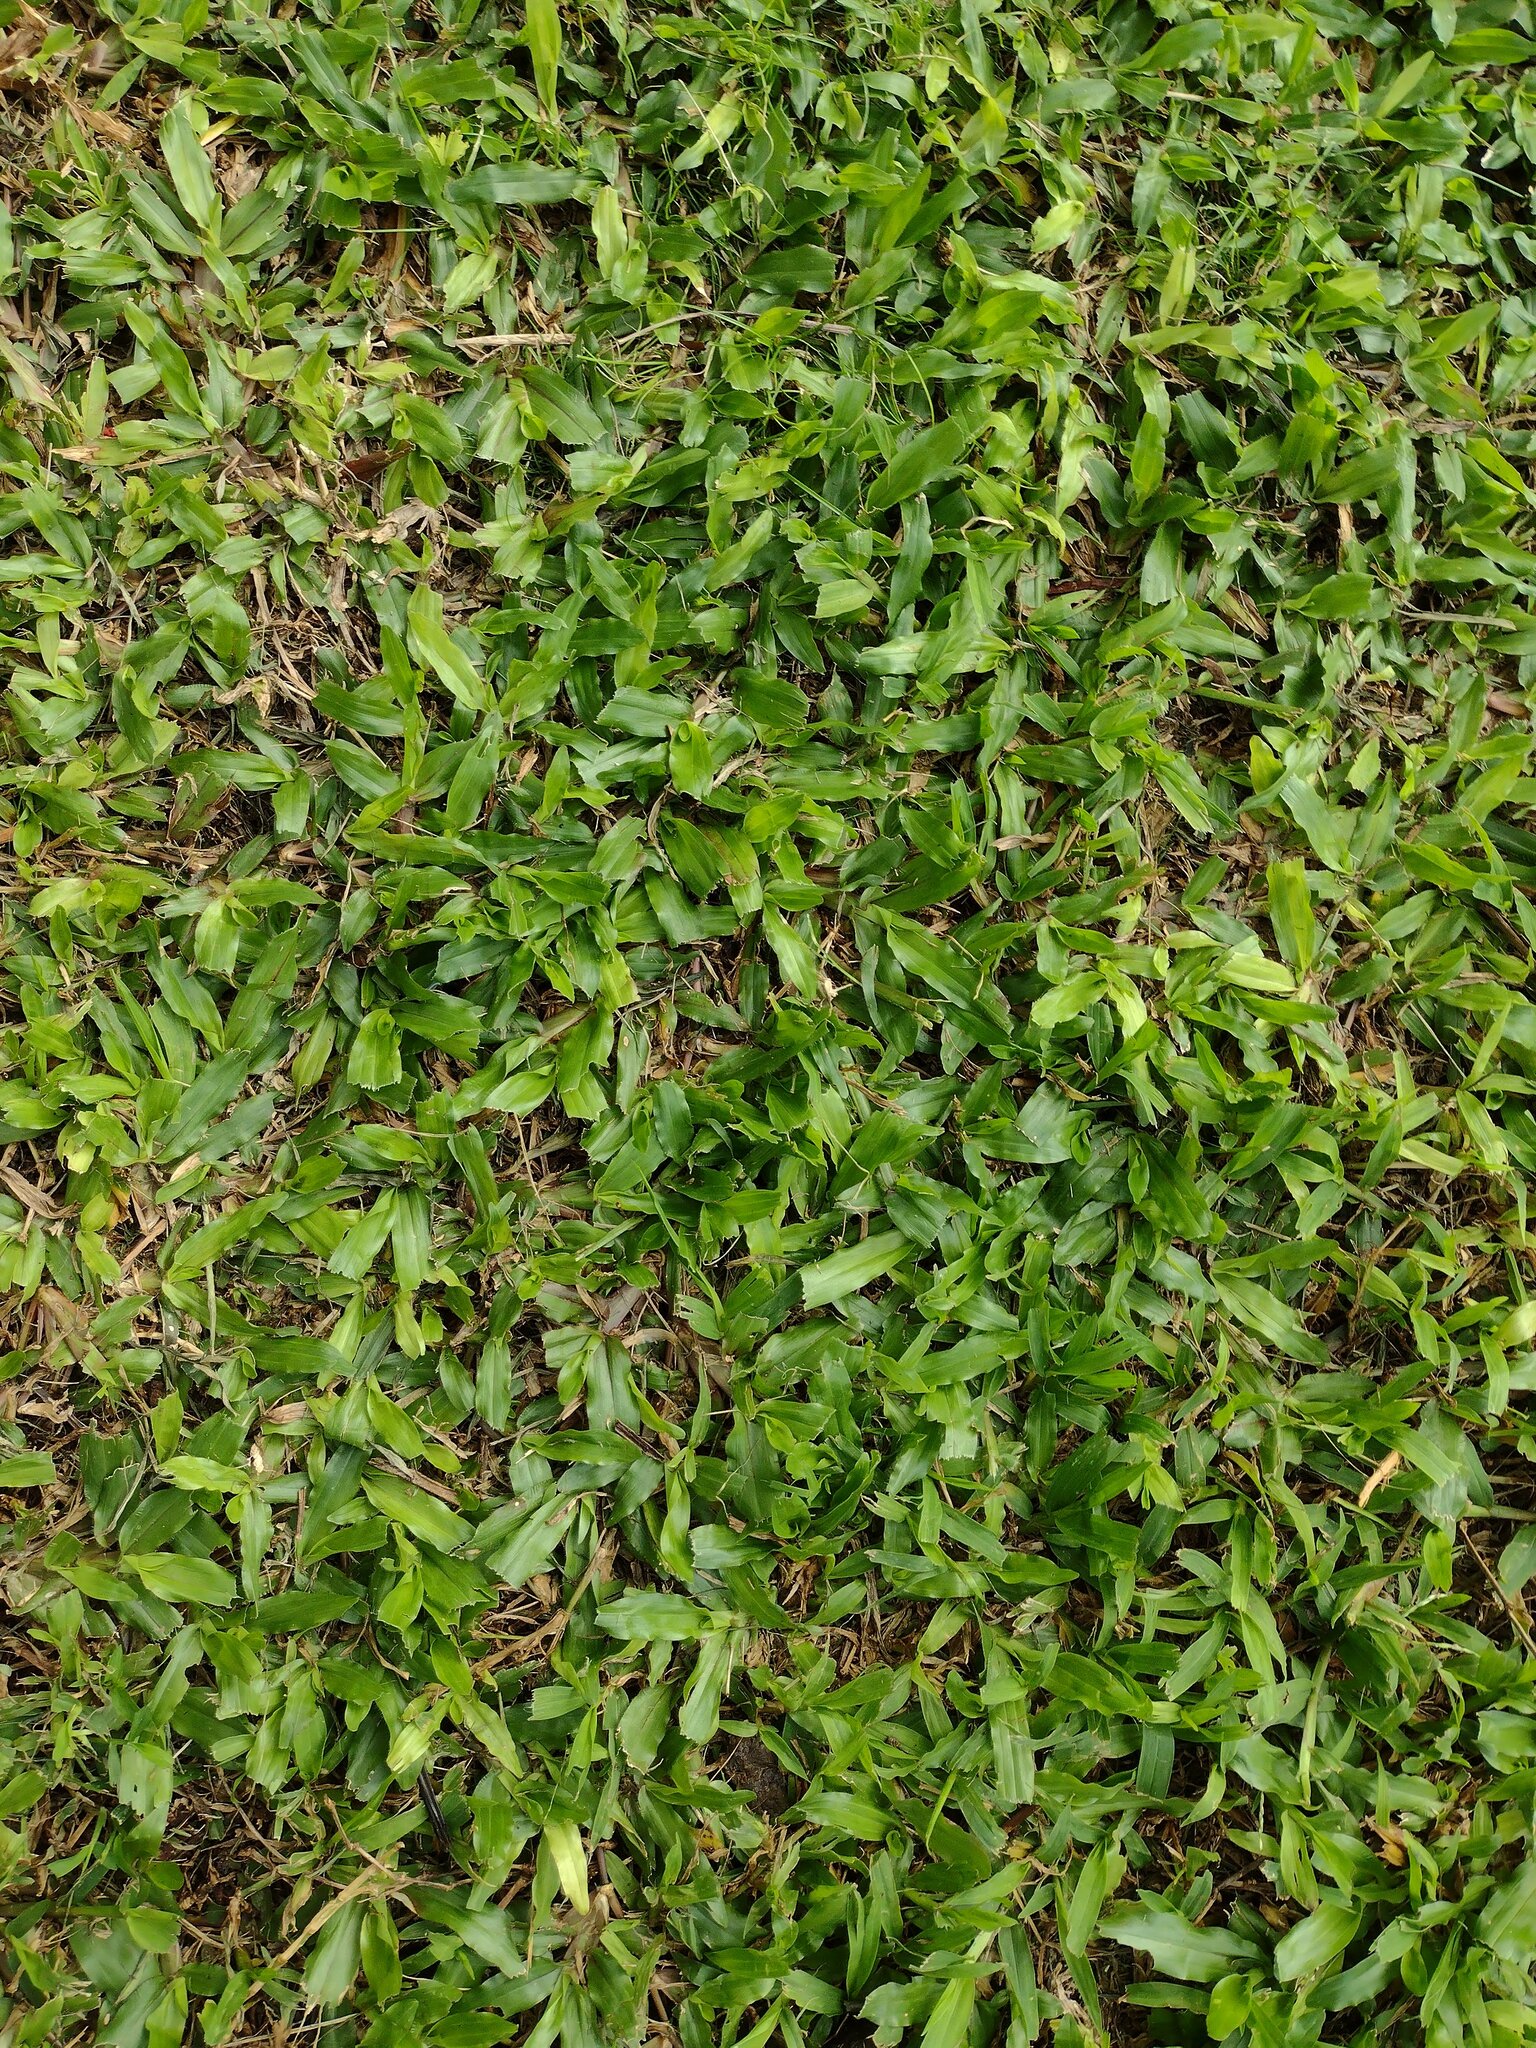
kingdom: Plantae
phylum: Tracheophyta
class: Liliopsida
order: Poales
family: Poaceae
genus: Axonopus
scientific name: Axonopus compressus
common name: American carpet grass
